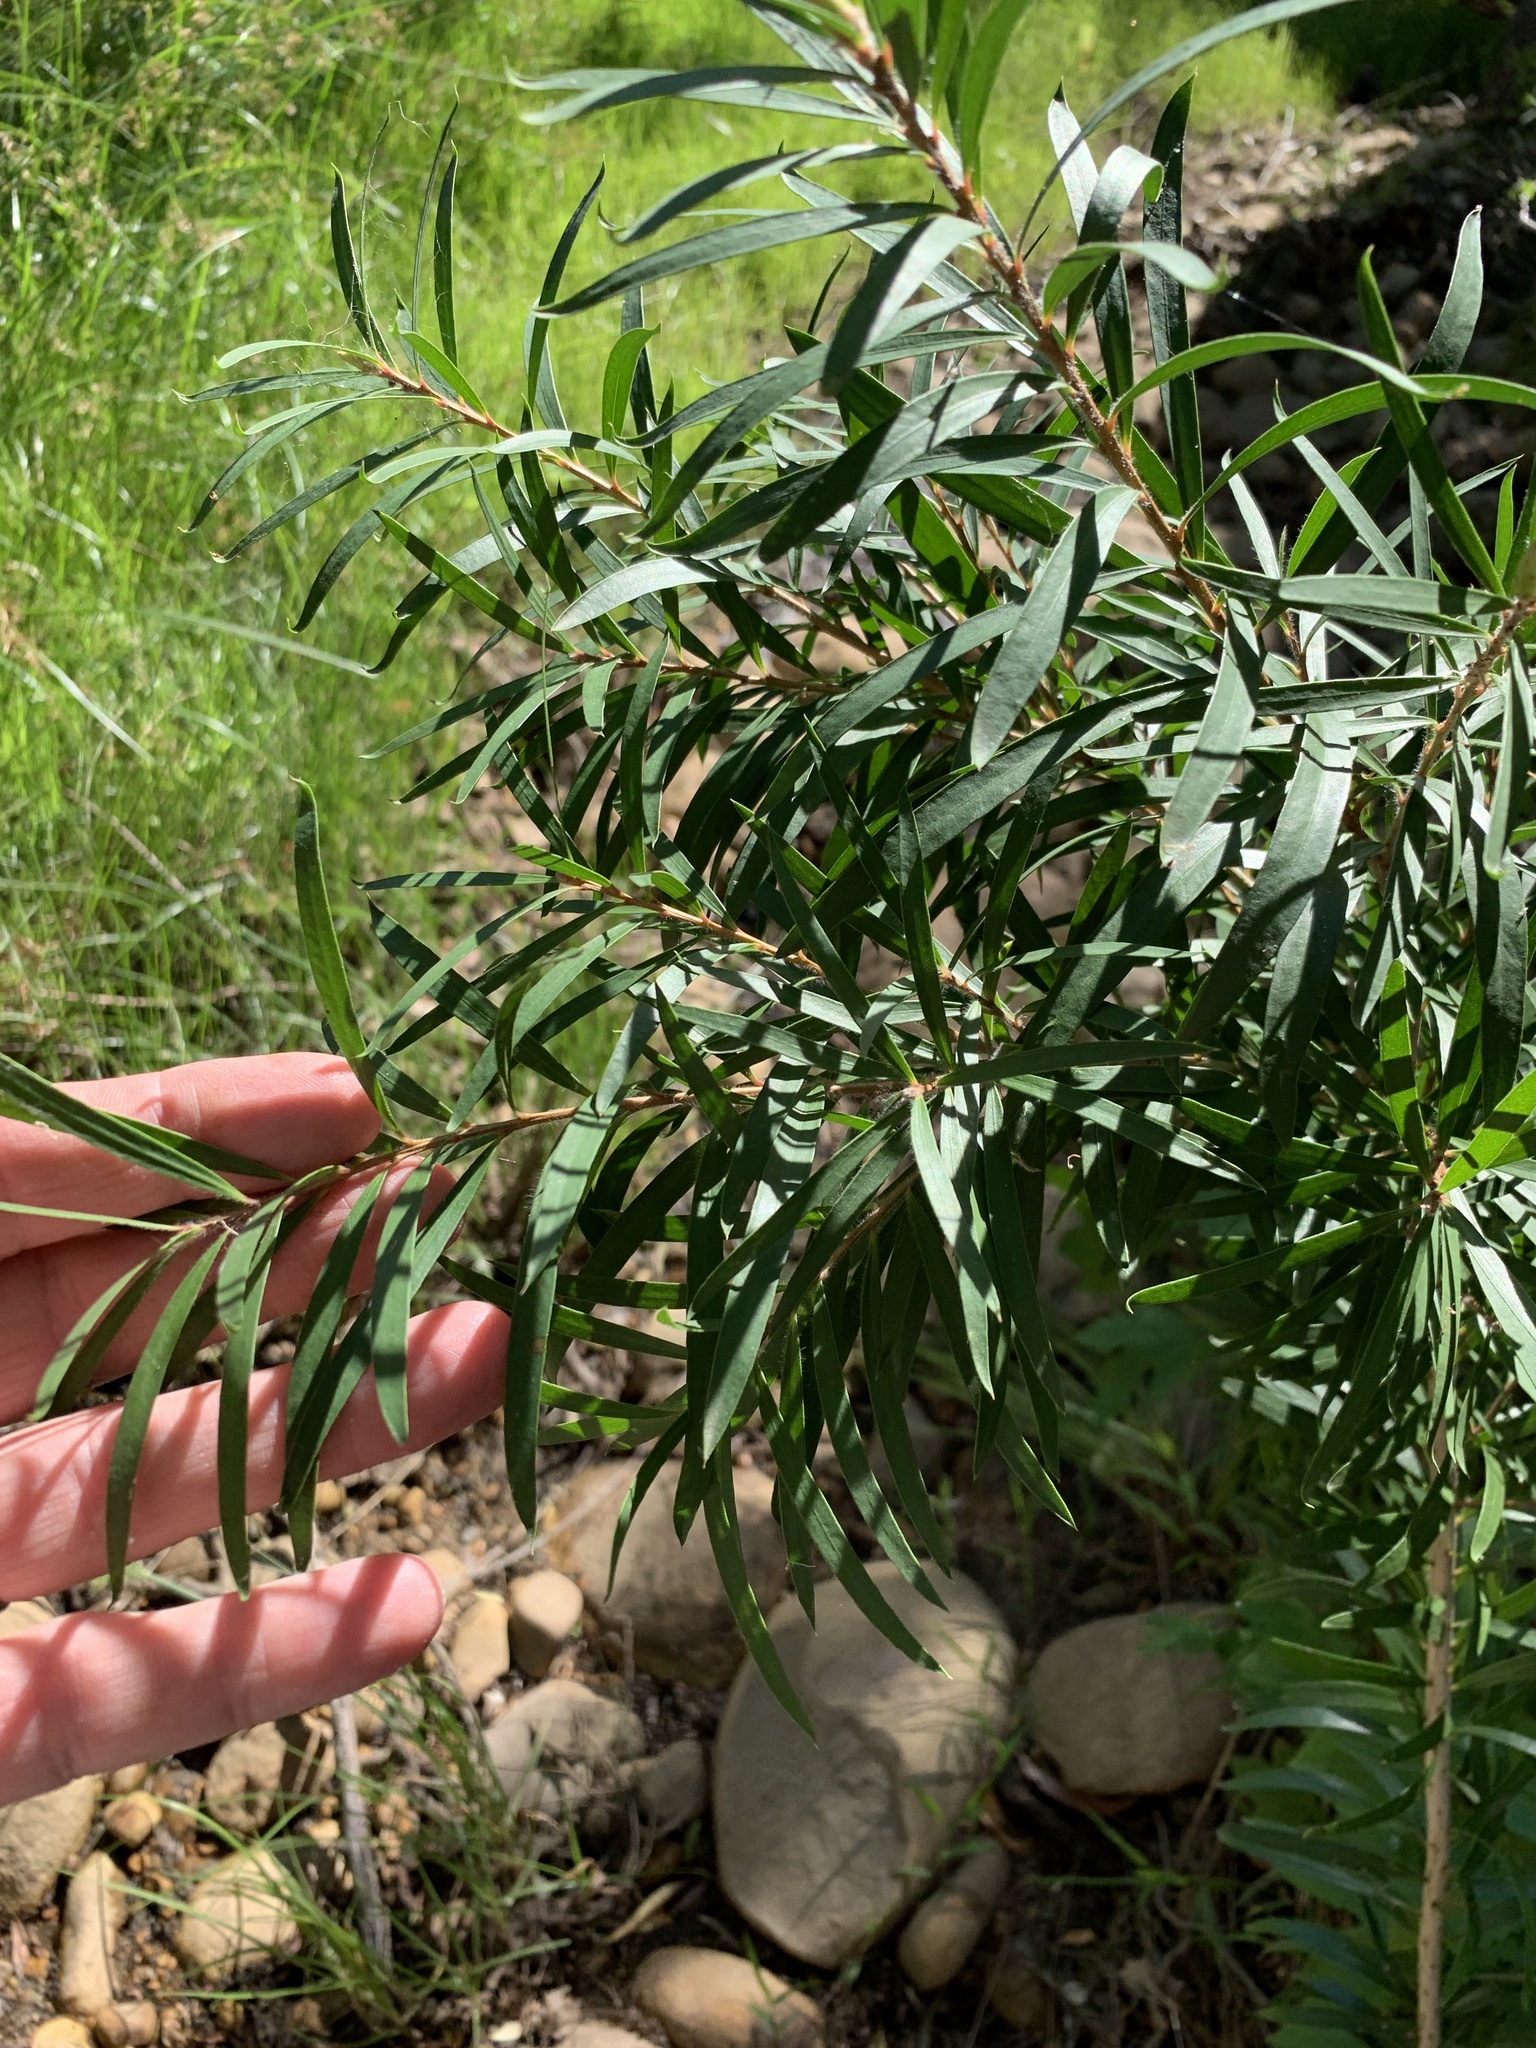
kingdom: Plantae
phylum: Tracheophyta
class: Magnoliopsida
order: Myrtales
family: Myrtaceae
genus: Callistemon
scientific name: Callistemon viminalis
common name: Drooping bottlebrush
